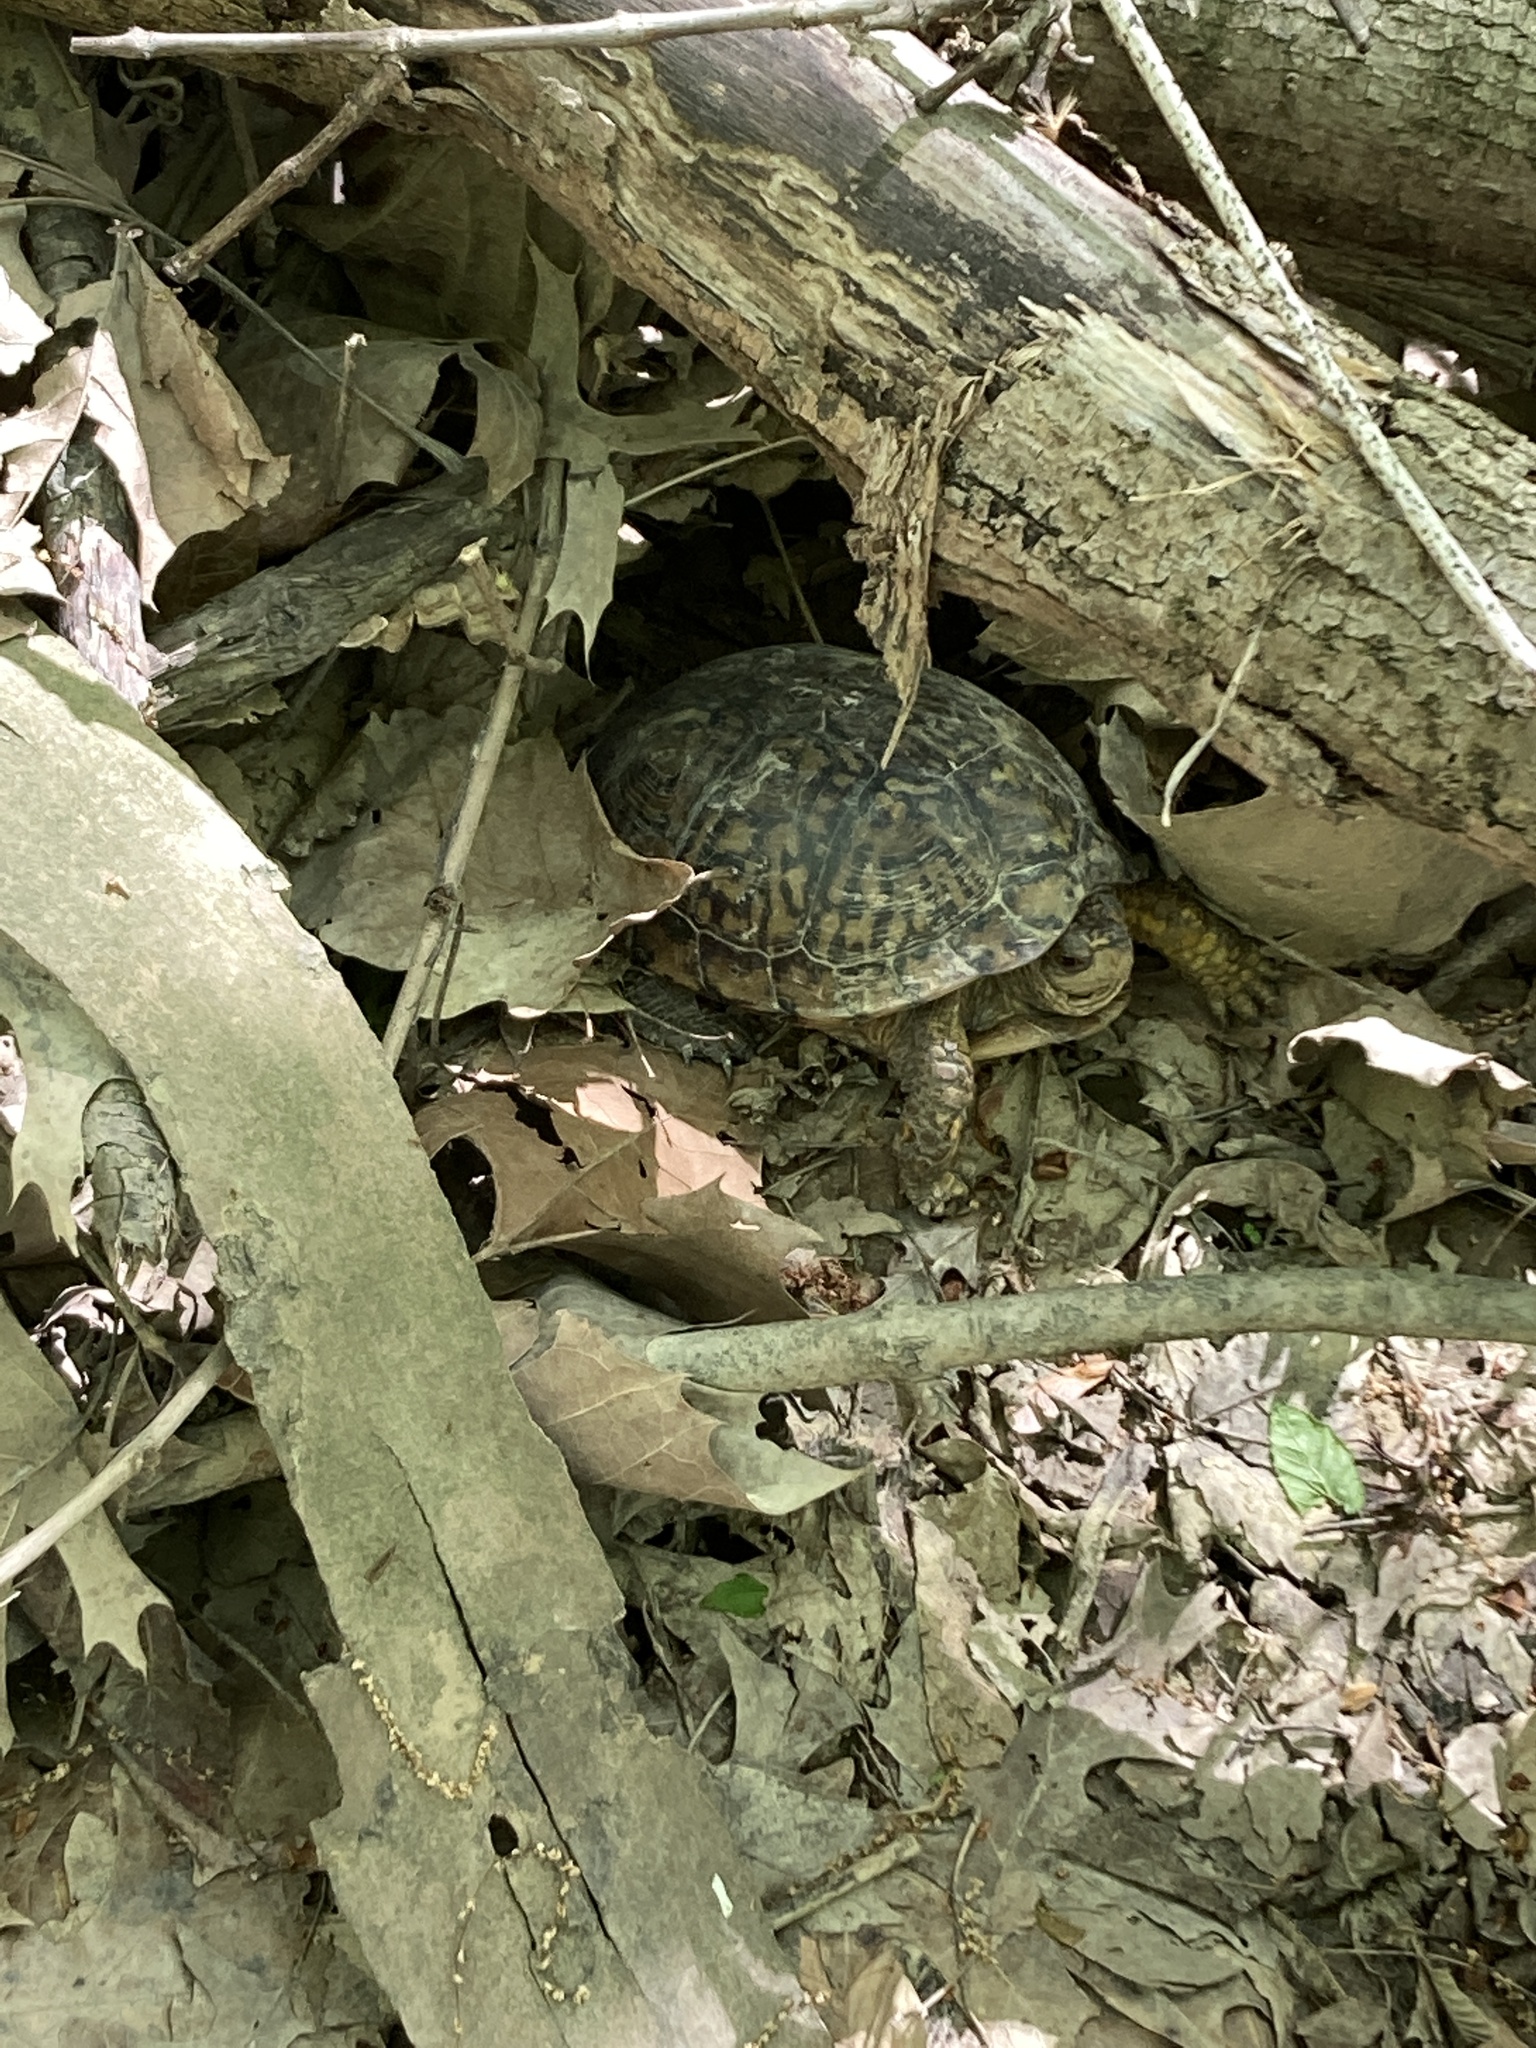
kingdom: Animalia
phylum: Chordata
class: Testudines
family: Emydidae
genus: Terrapene
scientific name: Terrapene carolina
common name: Common box turtle
